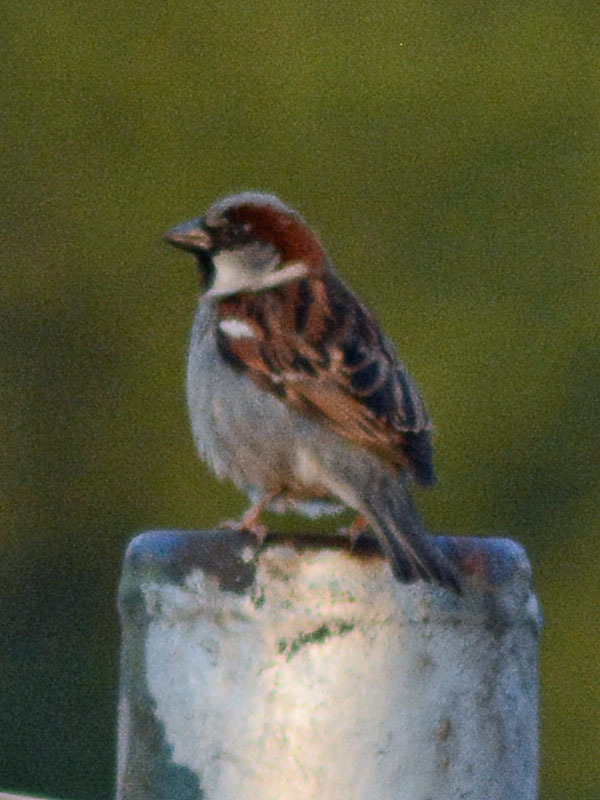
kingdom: Animalia
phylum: Chordata
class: Aves
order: Passeriformes
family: Passeridae
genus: Passer
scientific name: Passer domesticus
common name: House sparrow
